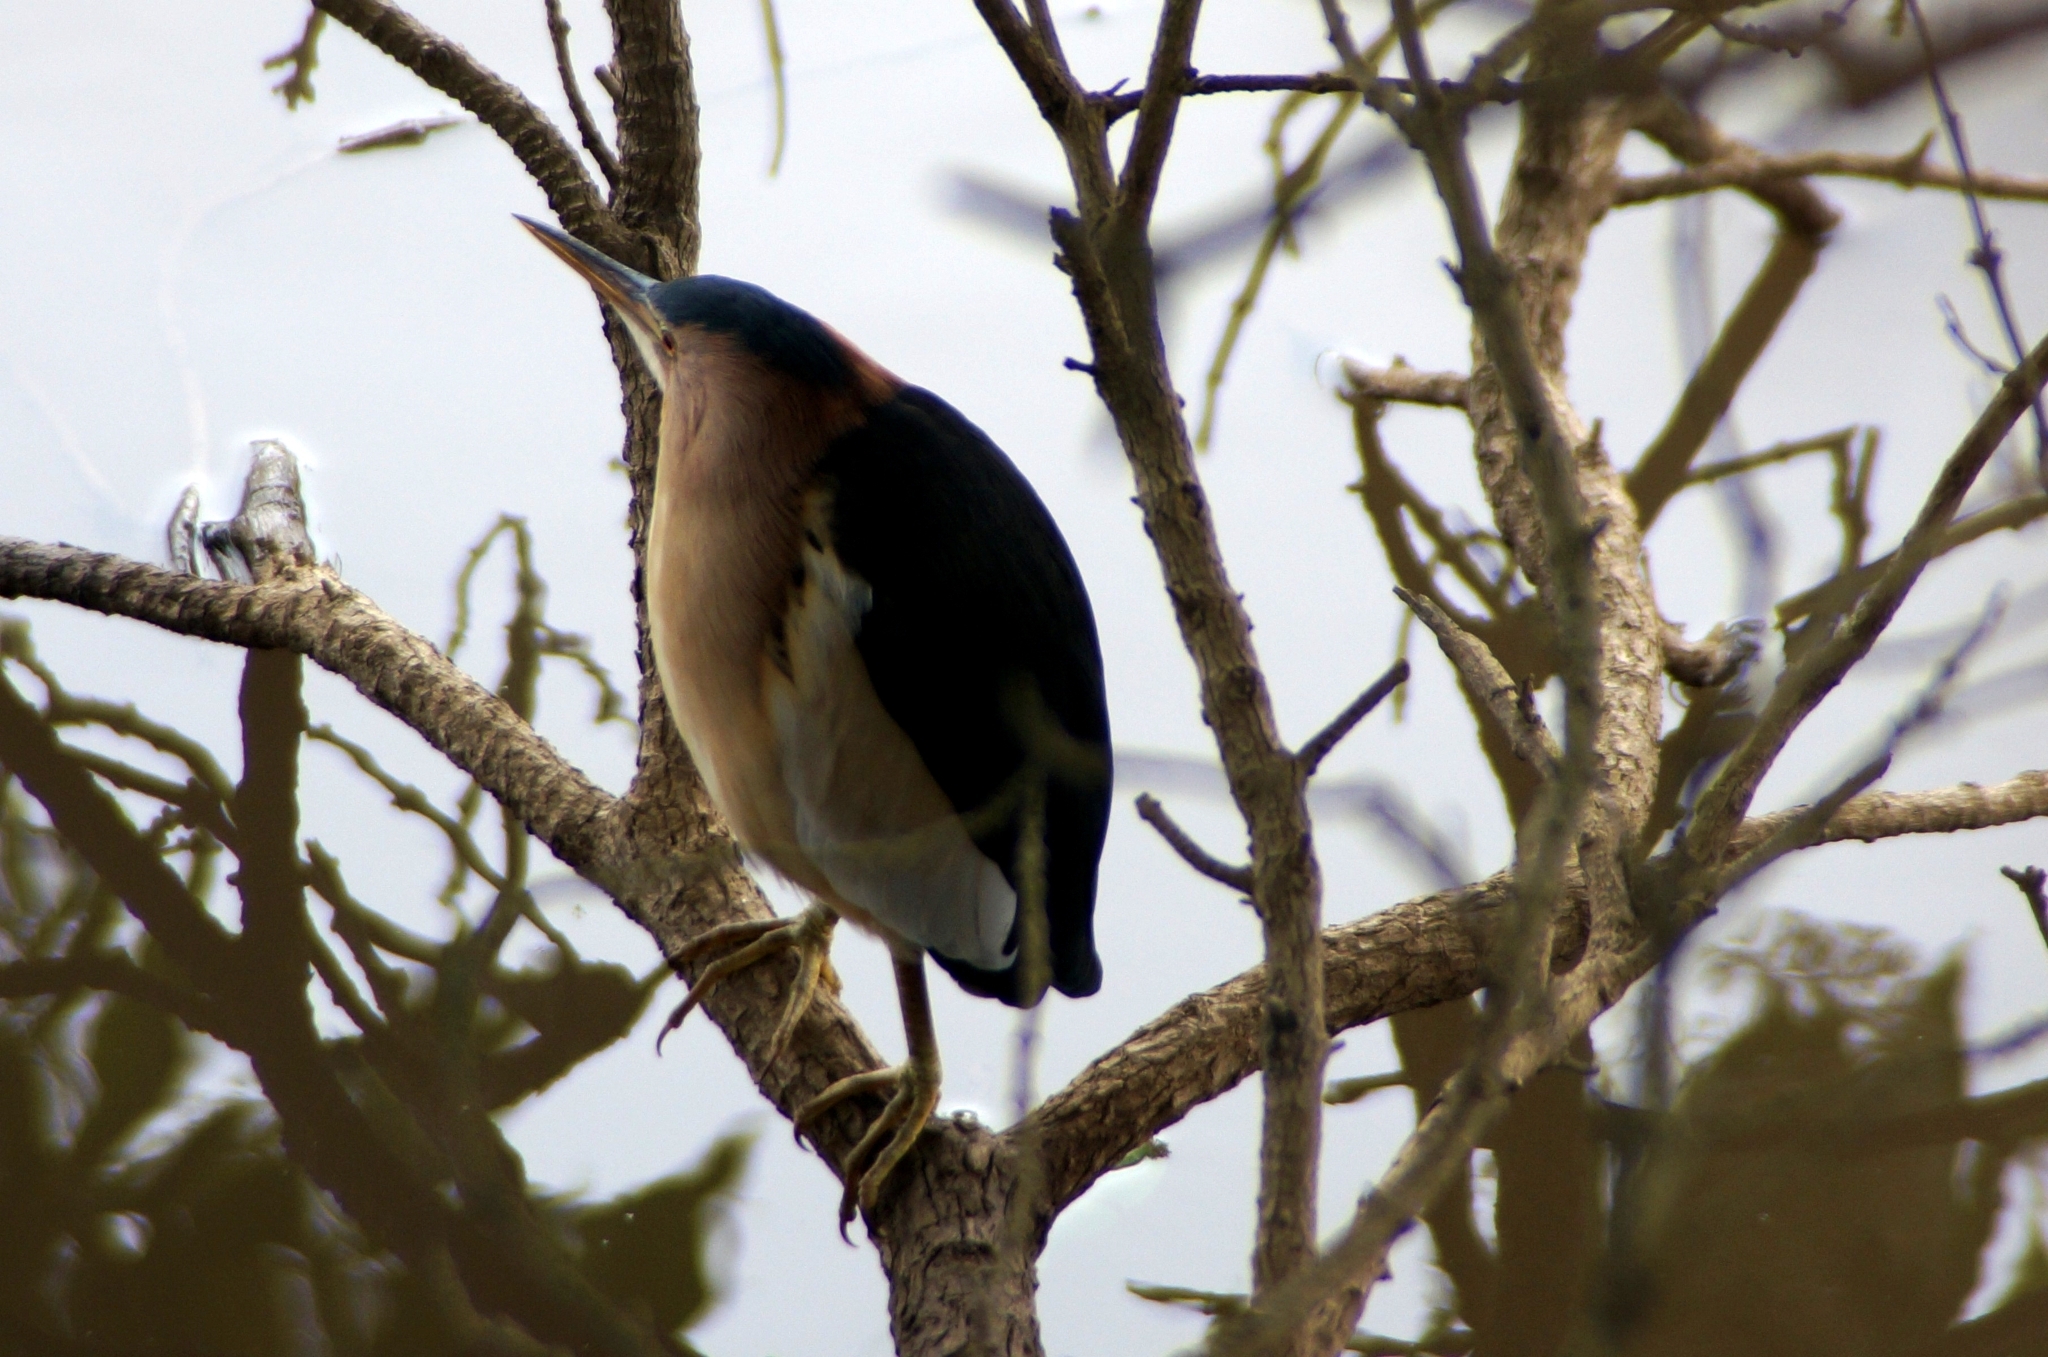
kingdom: Animalia
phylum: Chordata
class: Aves
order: Pelecaniformes
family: Ardeidae
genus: Ixobrychus
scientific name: Ixobrychus minutus
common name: Little bittern
